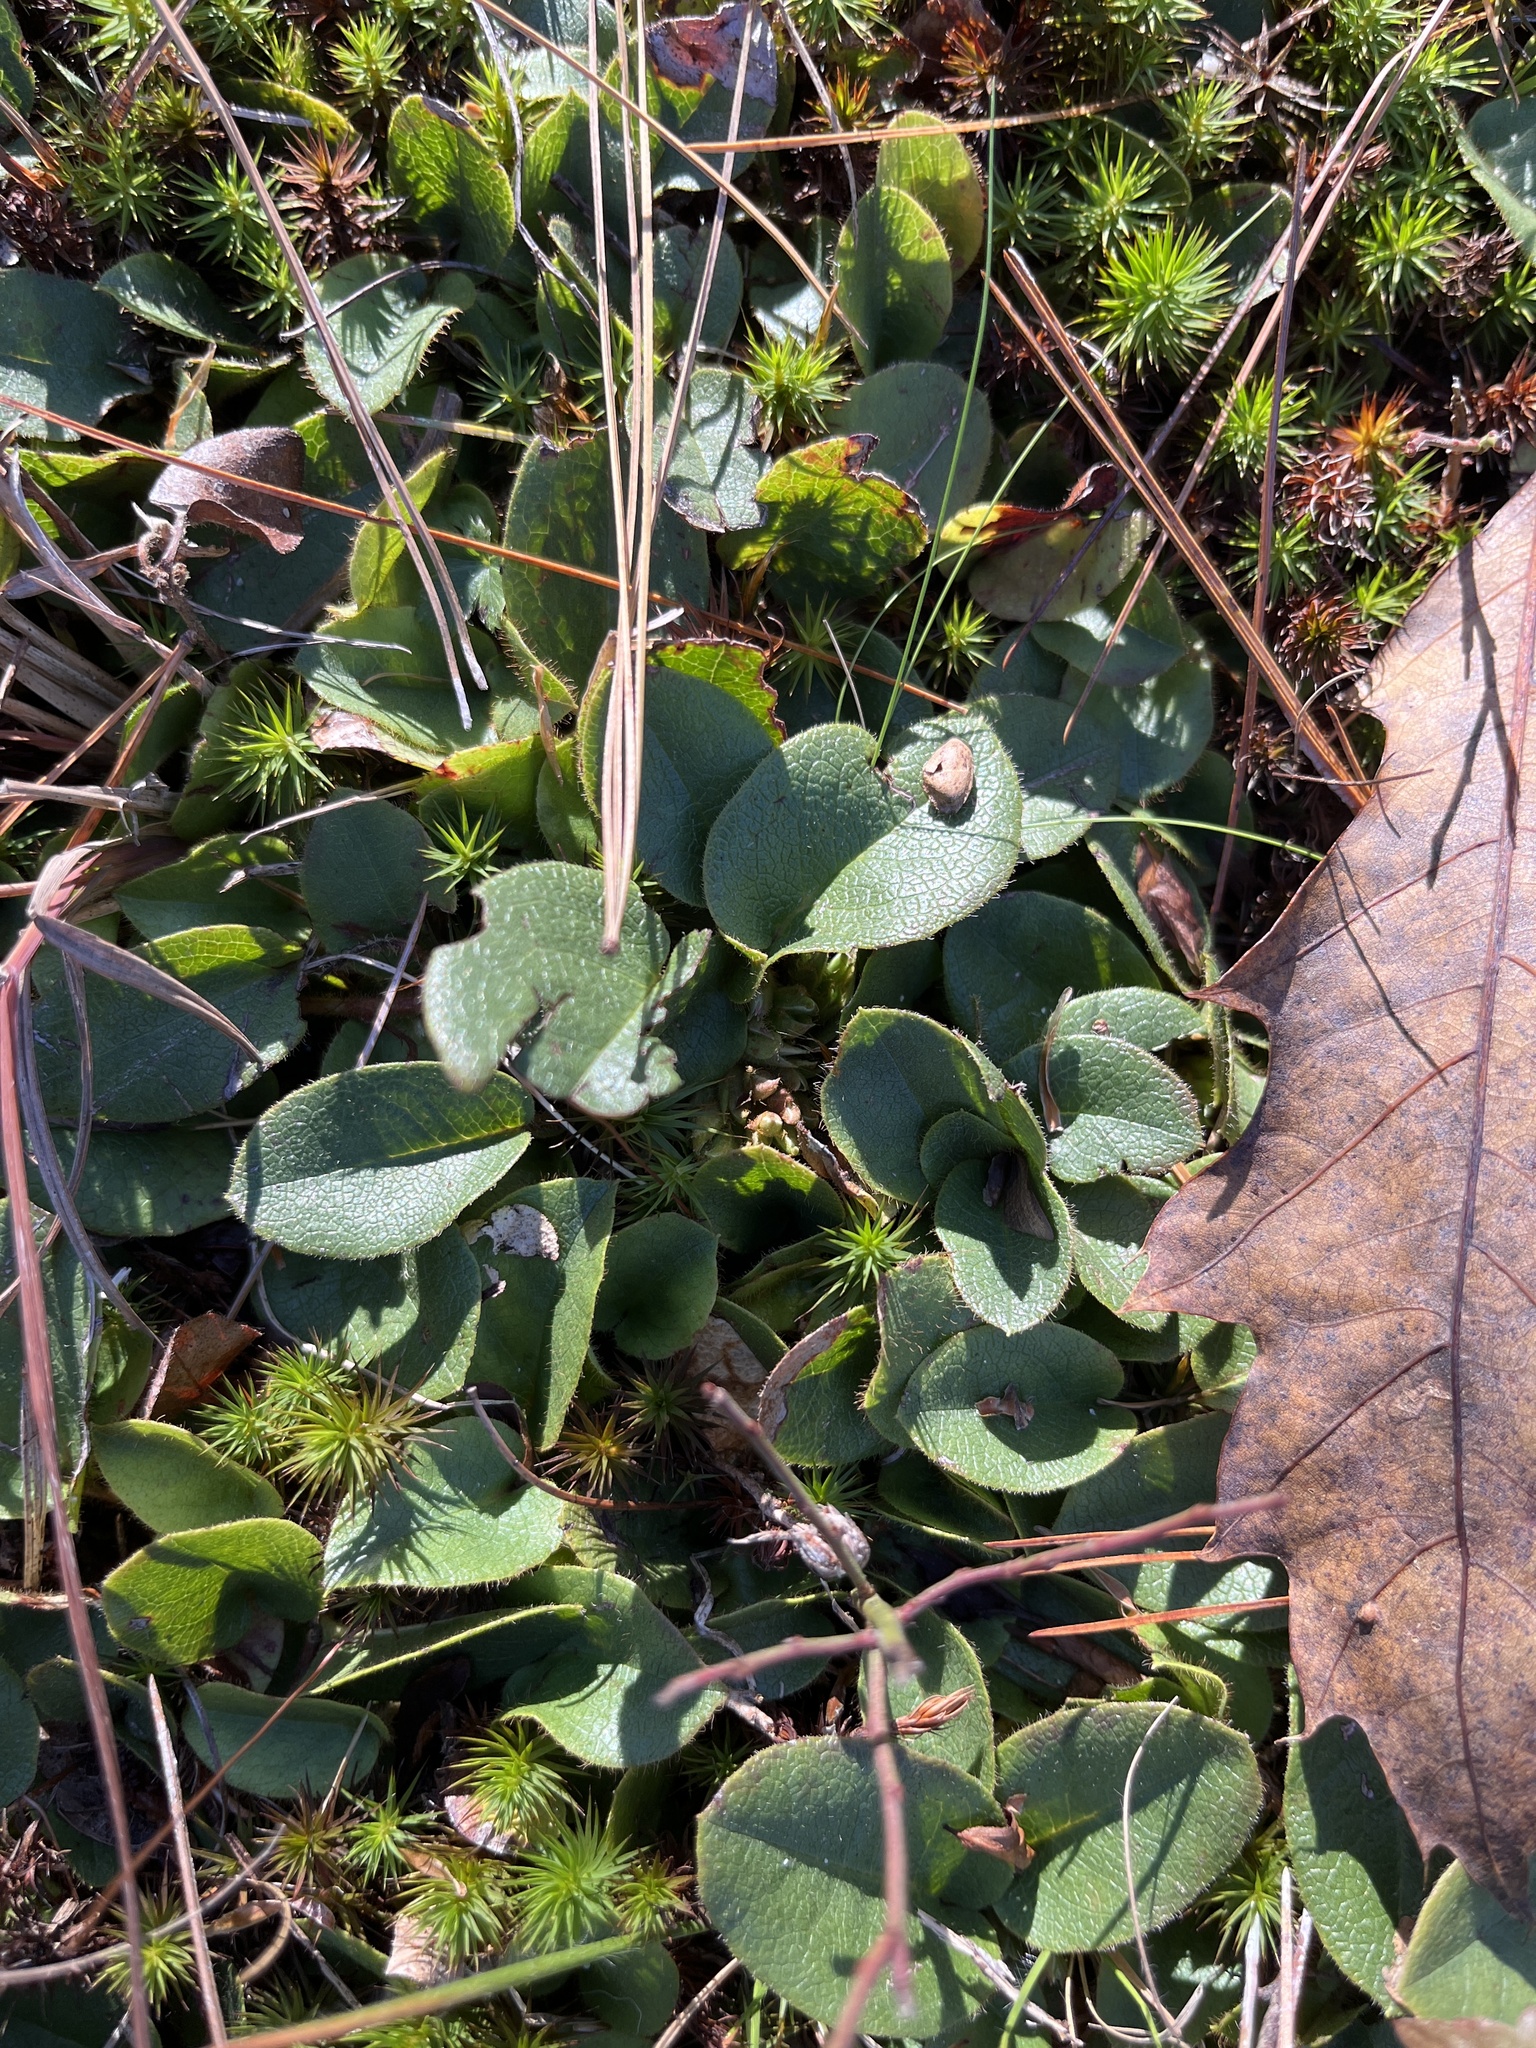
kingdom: Plantae
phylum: Tracheophyta
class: Magnoliopsida
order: Ericales
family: Ericaceae
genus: Epigaea
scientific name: Epigaea repens
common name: Gravelroot
